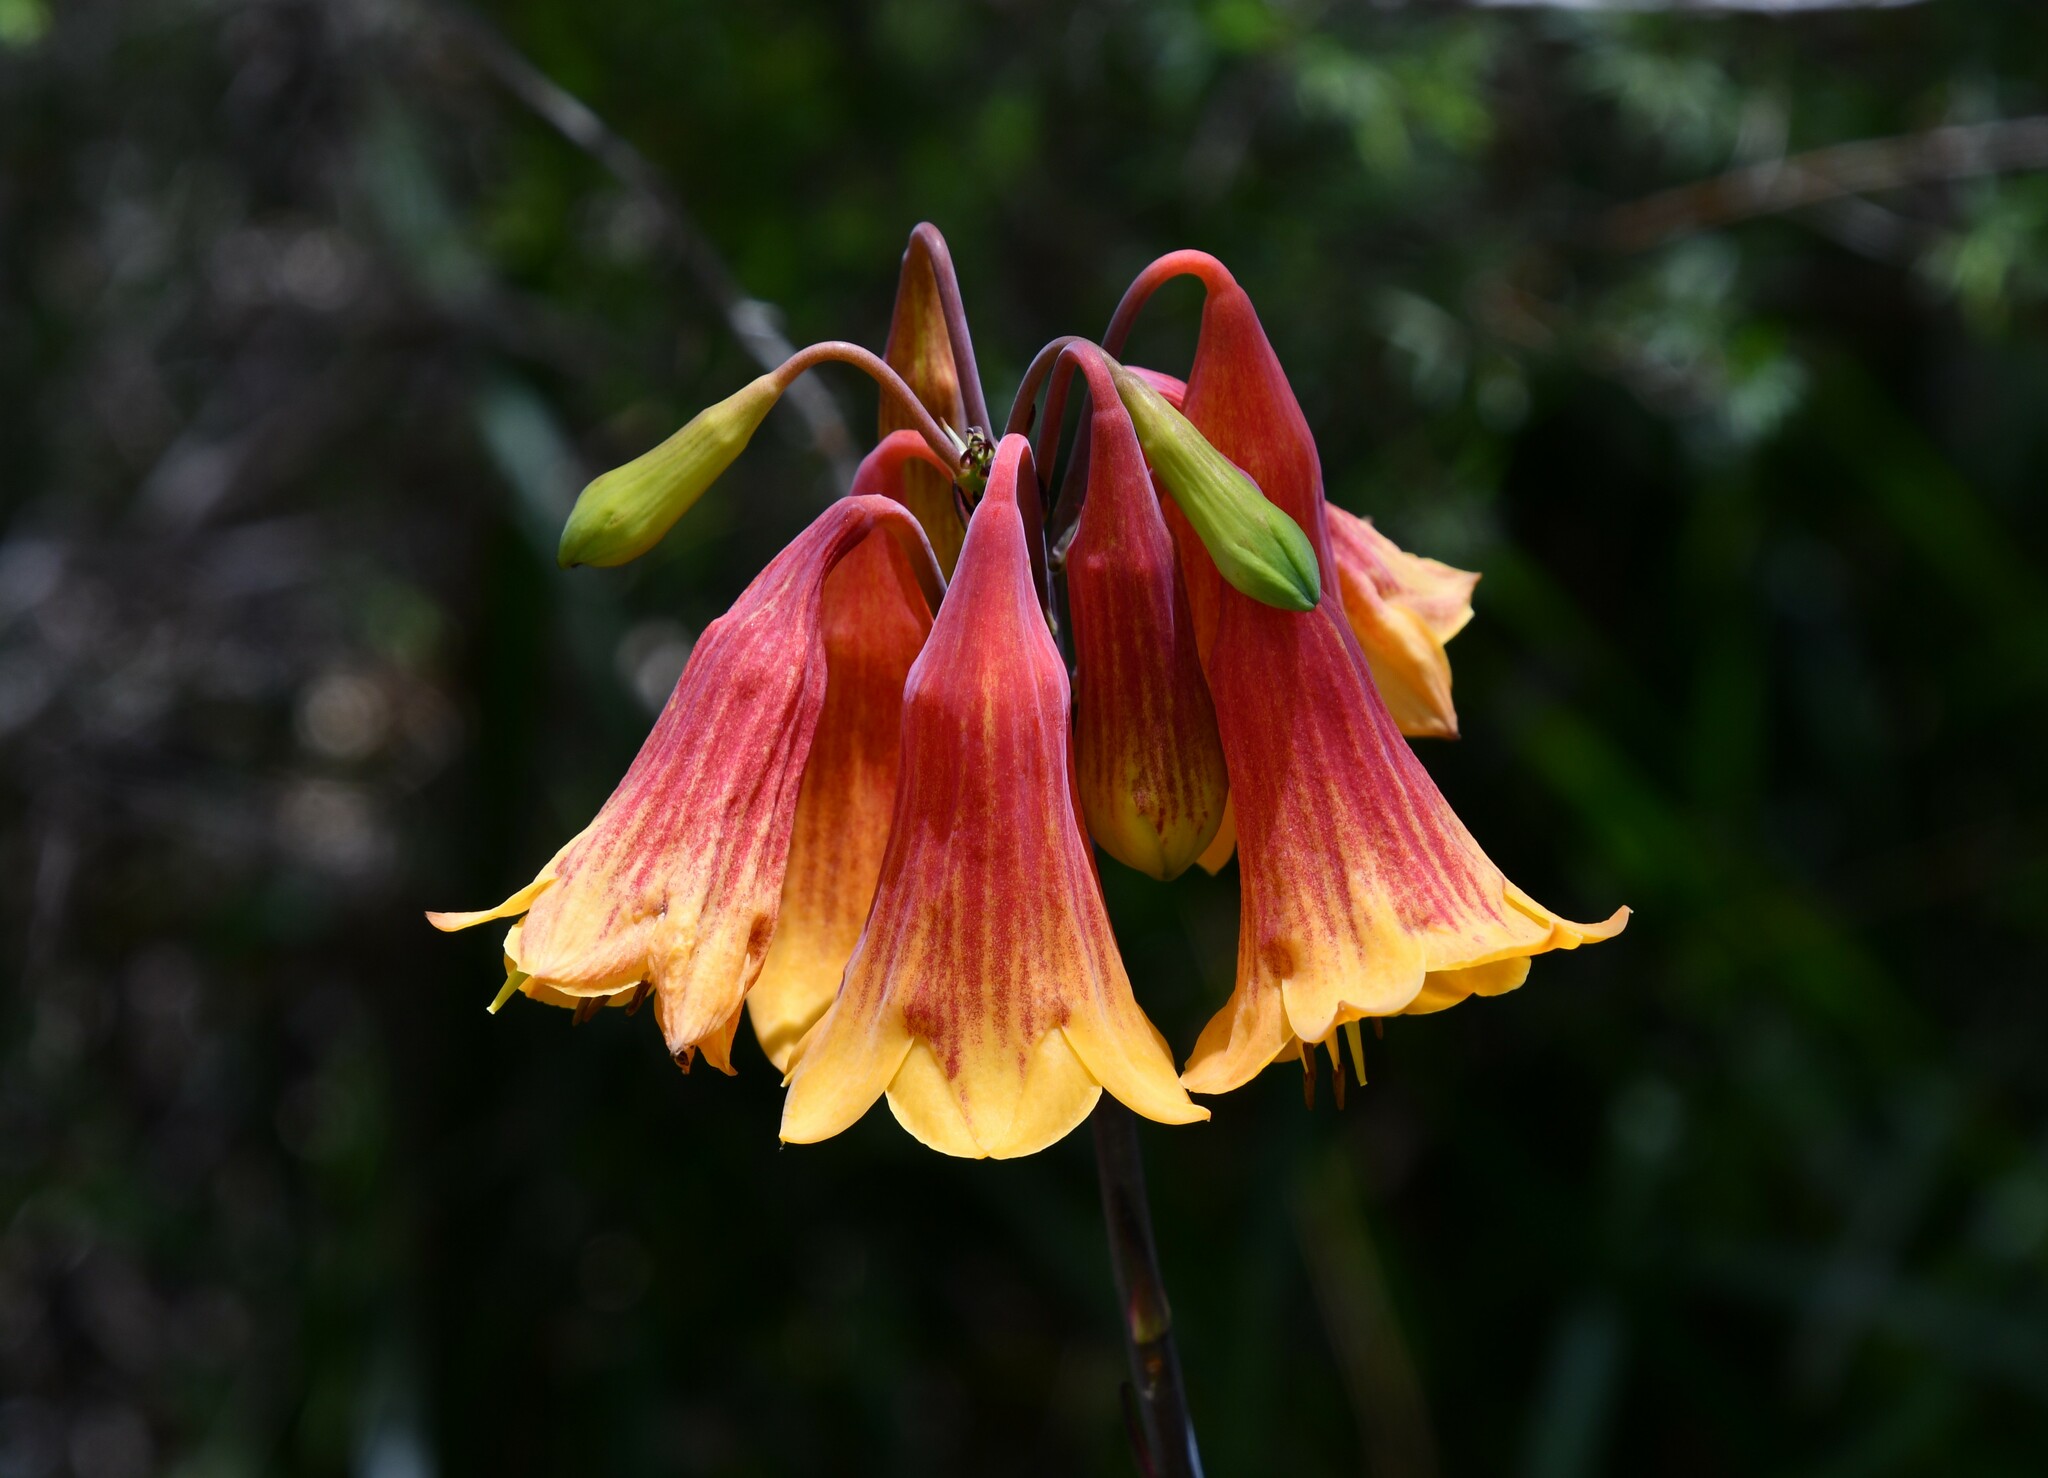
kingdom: Plantae
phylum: Tracheophyta
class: Liliopsida
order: Asparagales
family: Blandfordiaceae
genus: Blandfordia
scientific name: Blandfordia grandiflora
